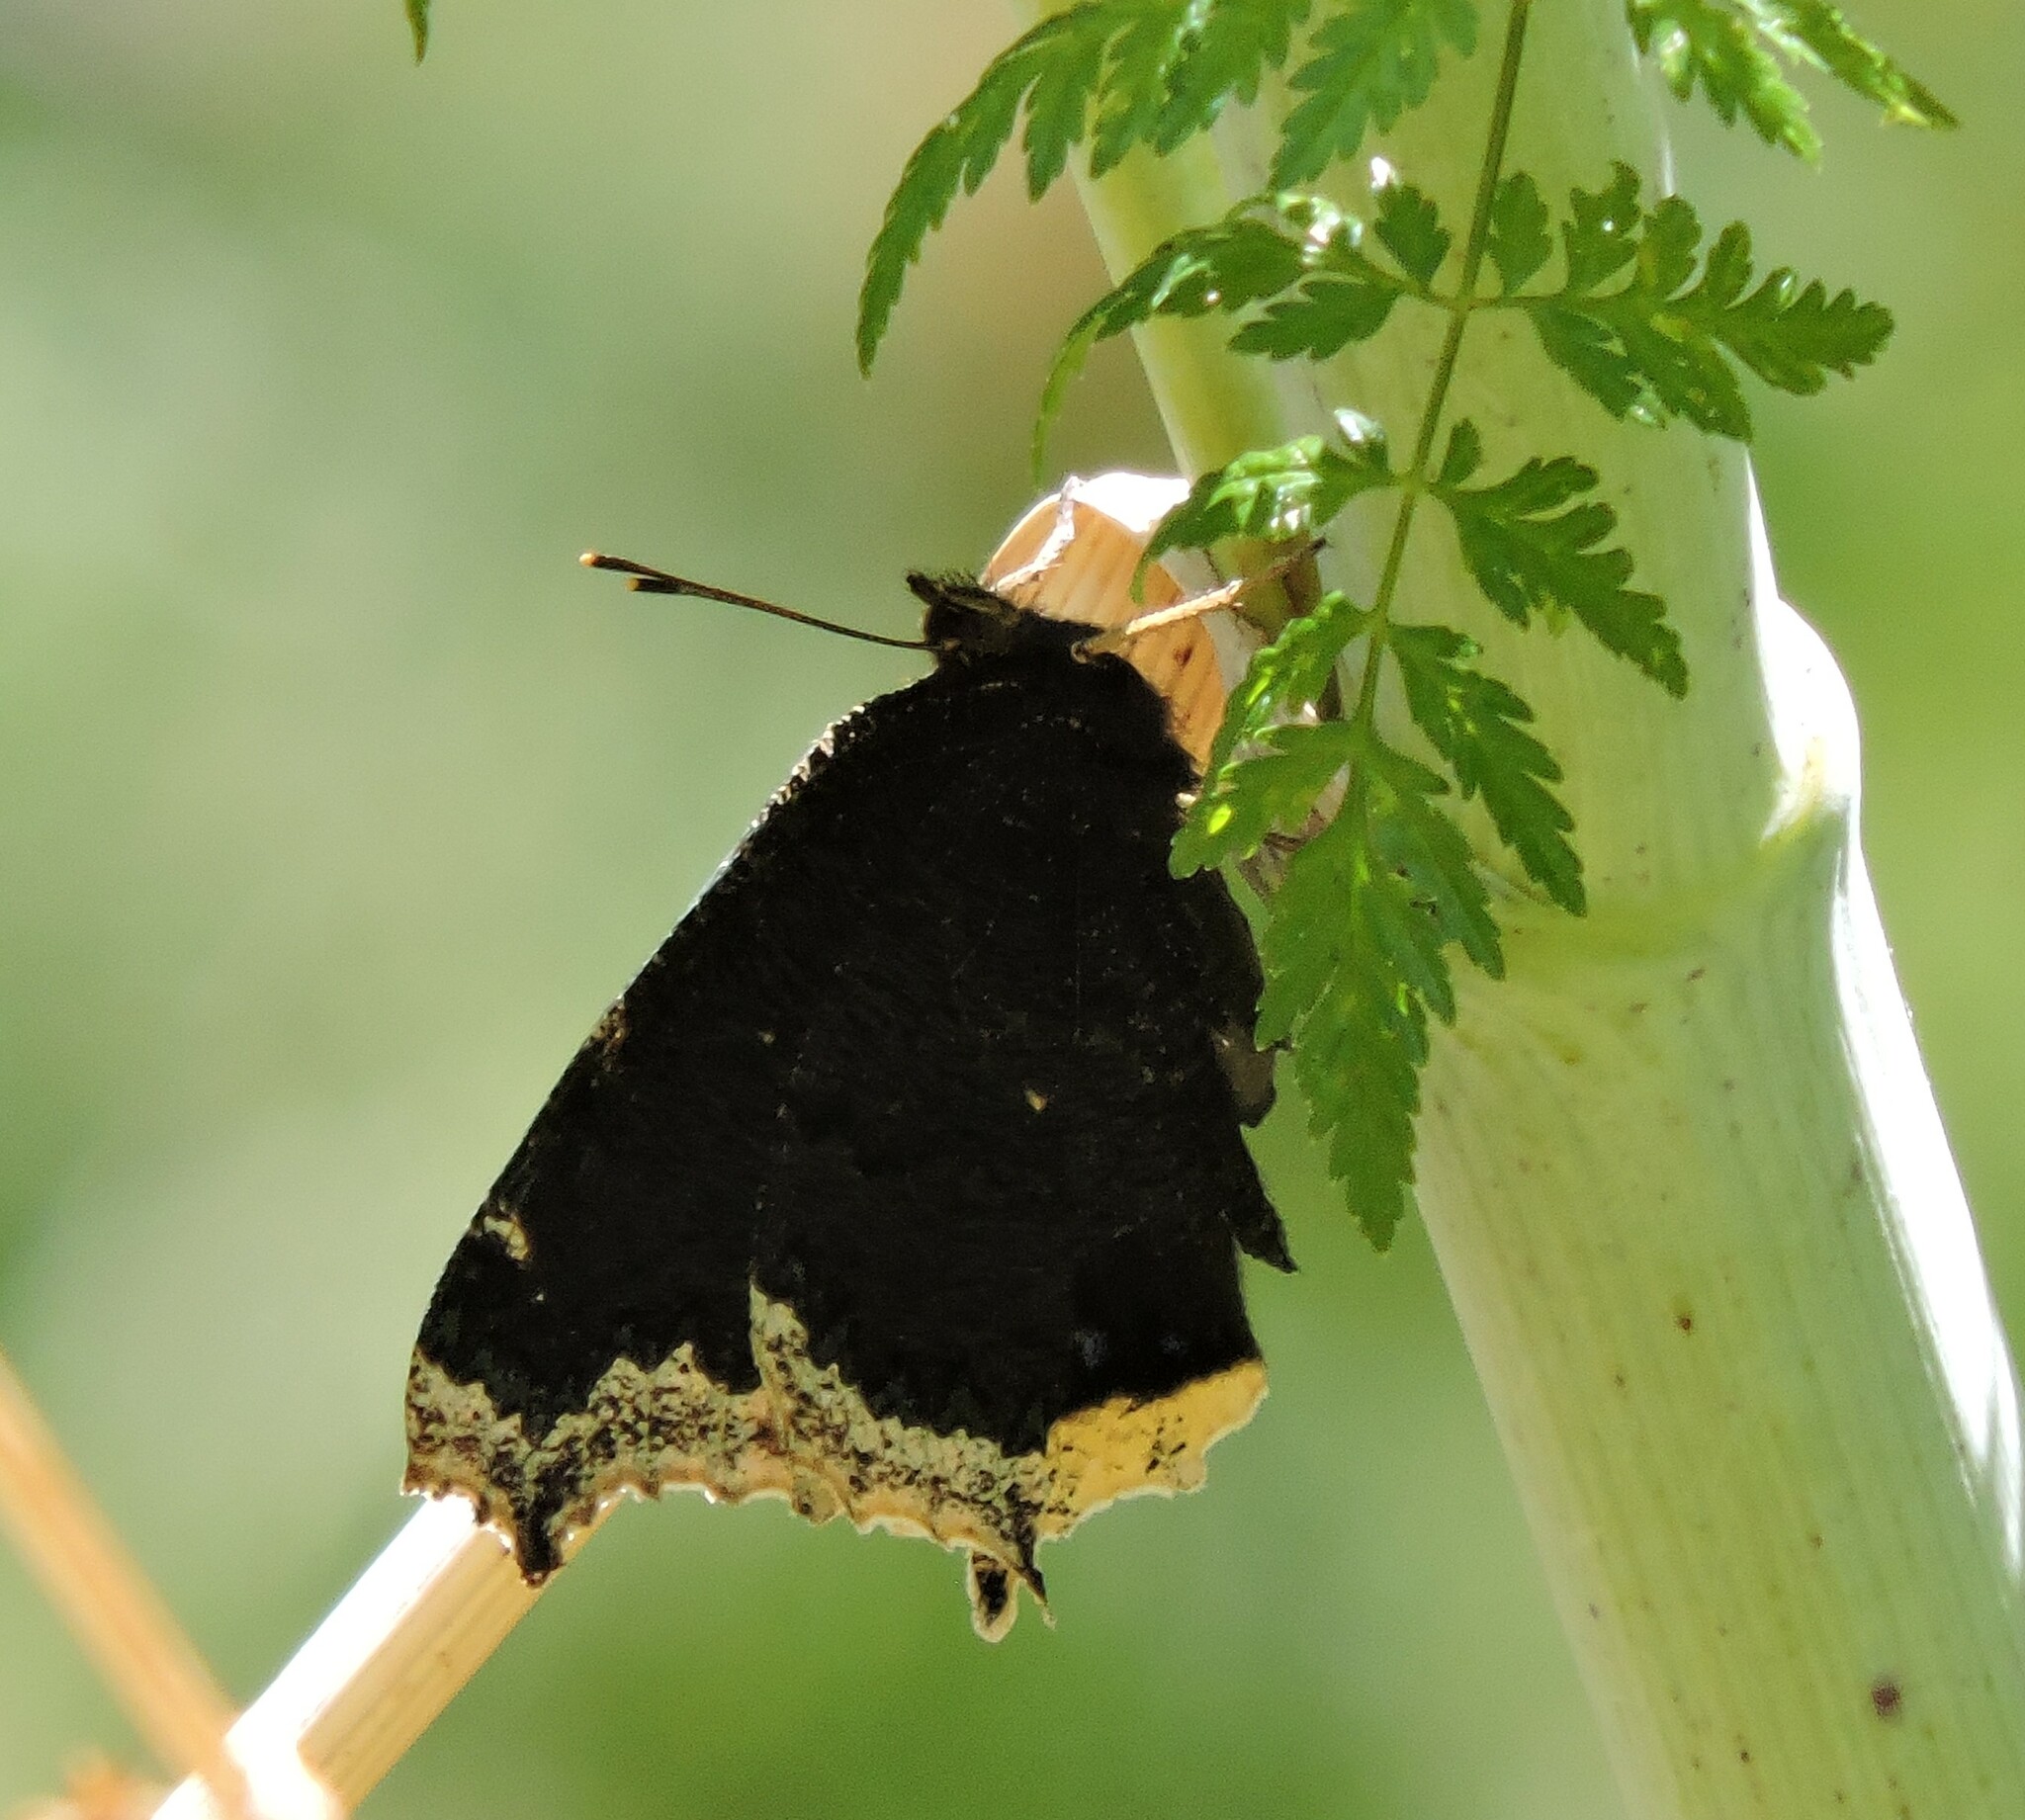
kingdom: Animalia
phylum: Arthropoda
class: Insecta
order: Lepidoptera
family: Nymphalidae
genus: Nymphalis
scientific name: Nymphalis antiopa
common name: Camberwell beauty
